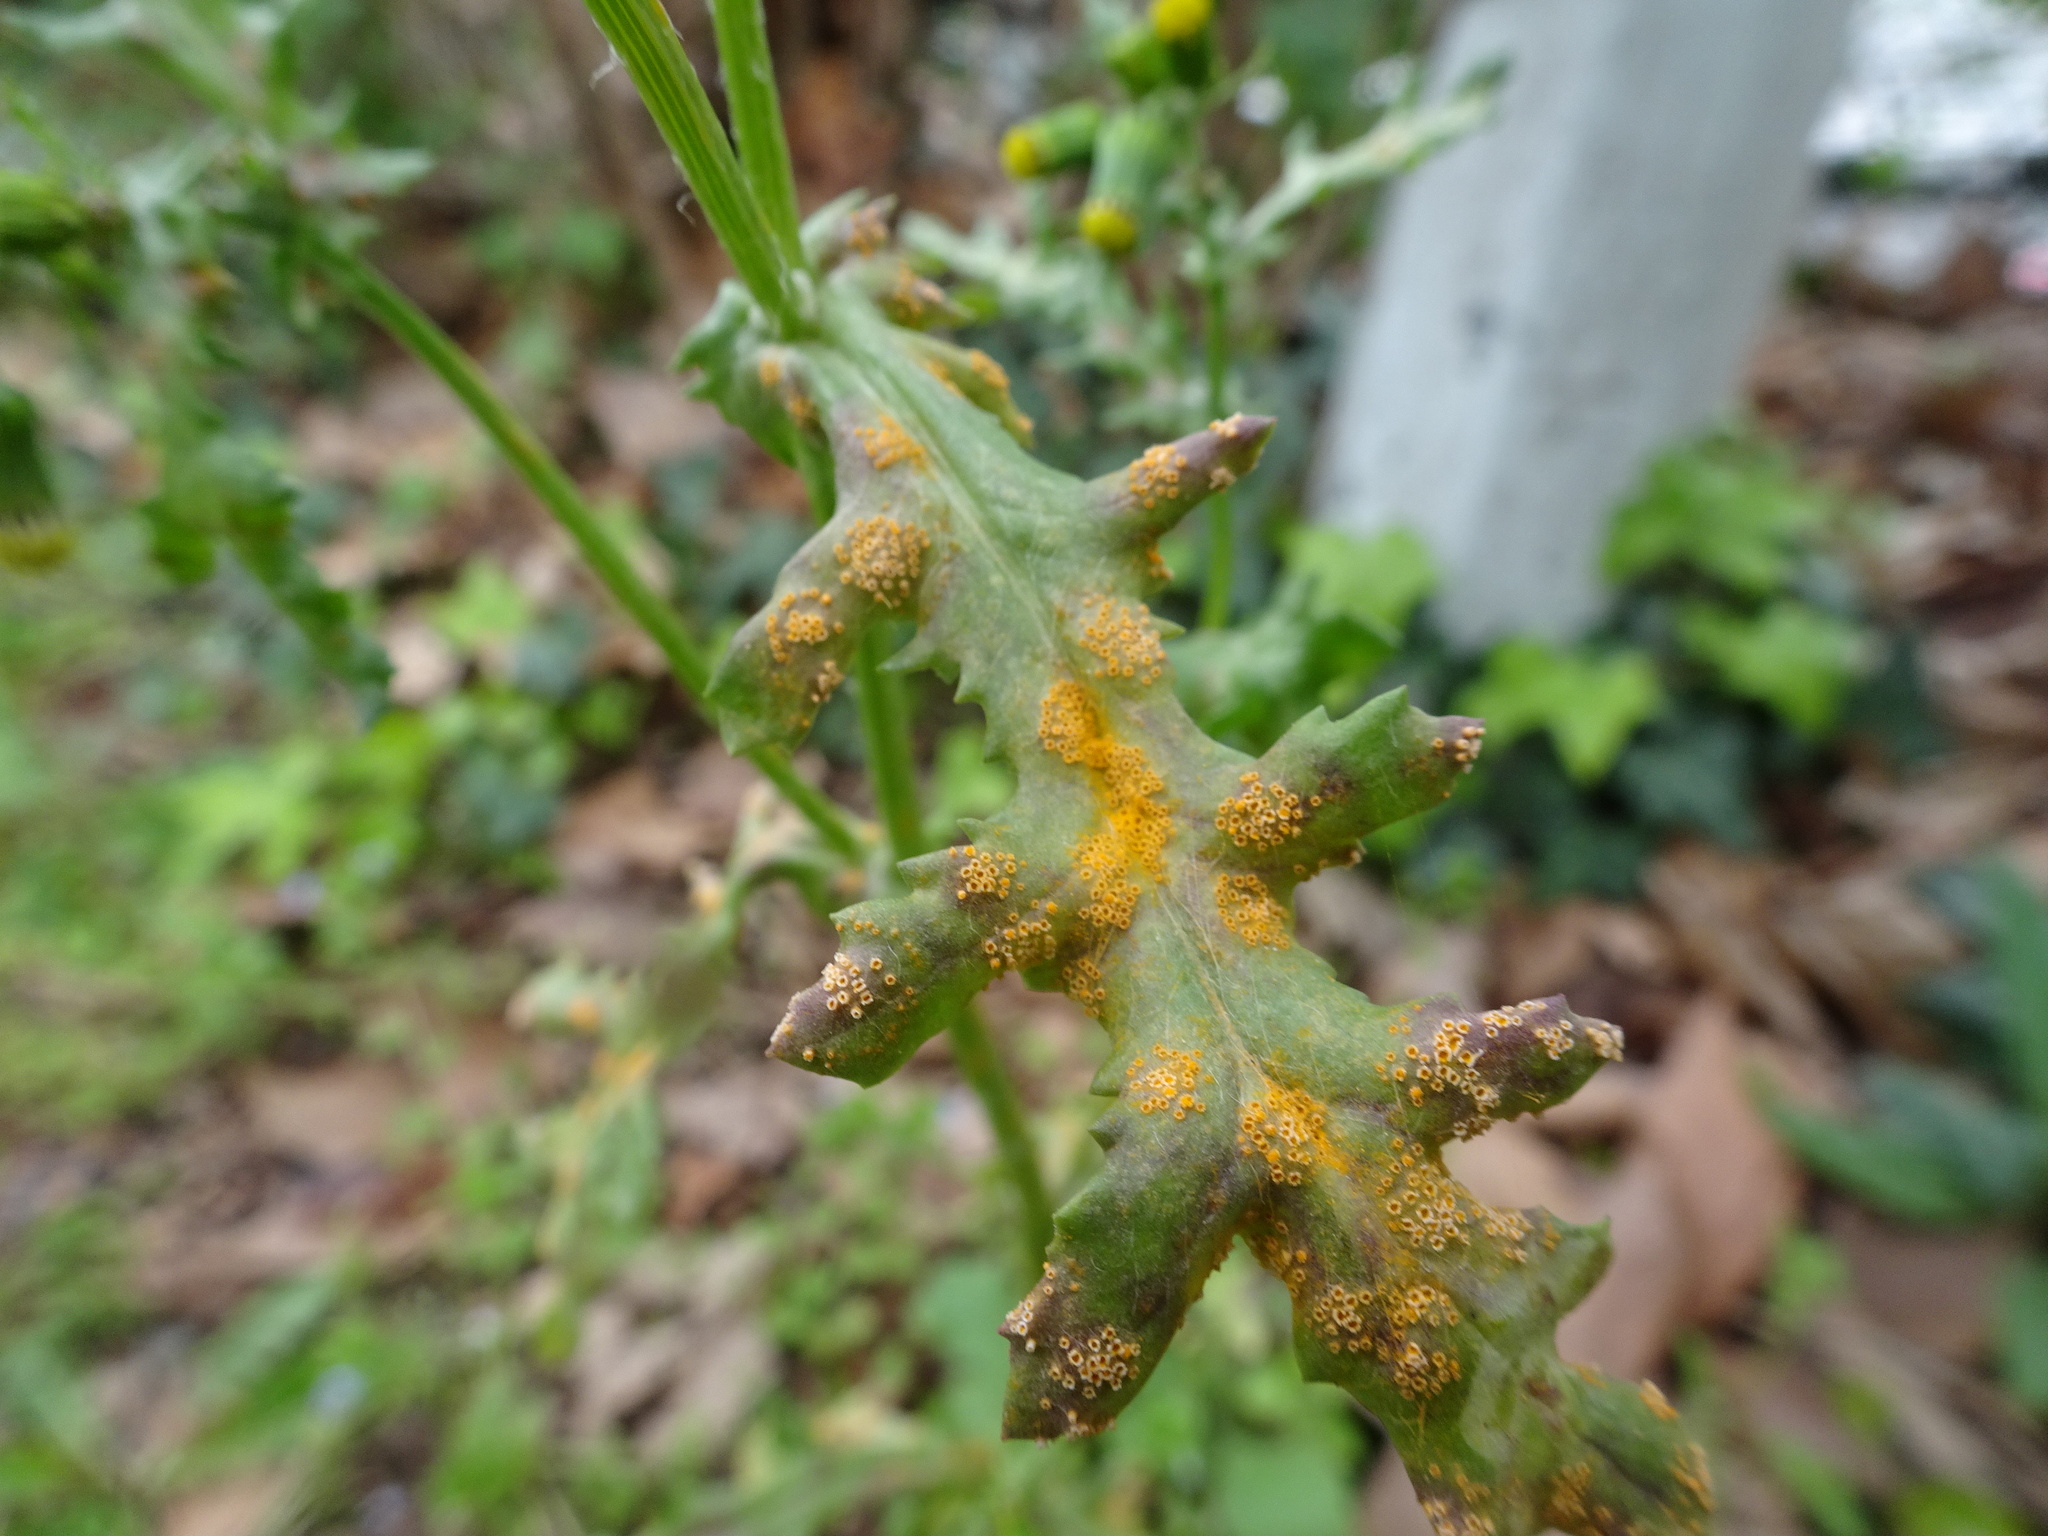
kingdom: Fungi
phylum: Basidiomycota
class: Pucciniomycetes
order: Pucciniales
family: Pucciniaceae
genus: Puccinia
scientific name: Puccinia lagenophorae
